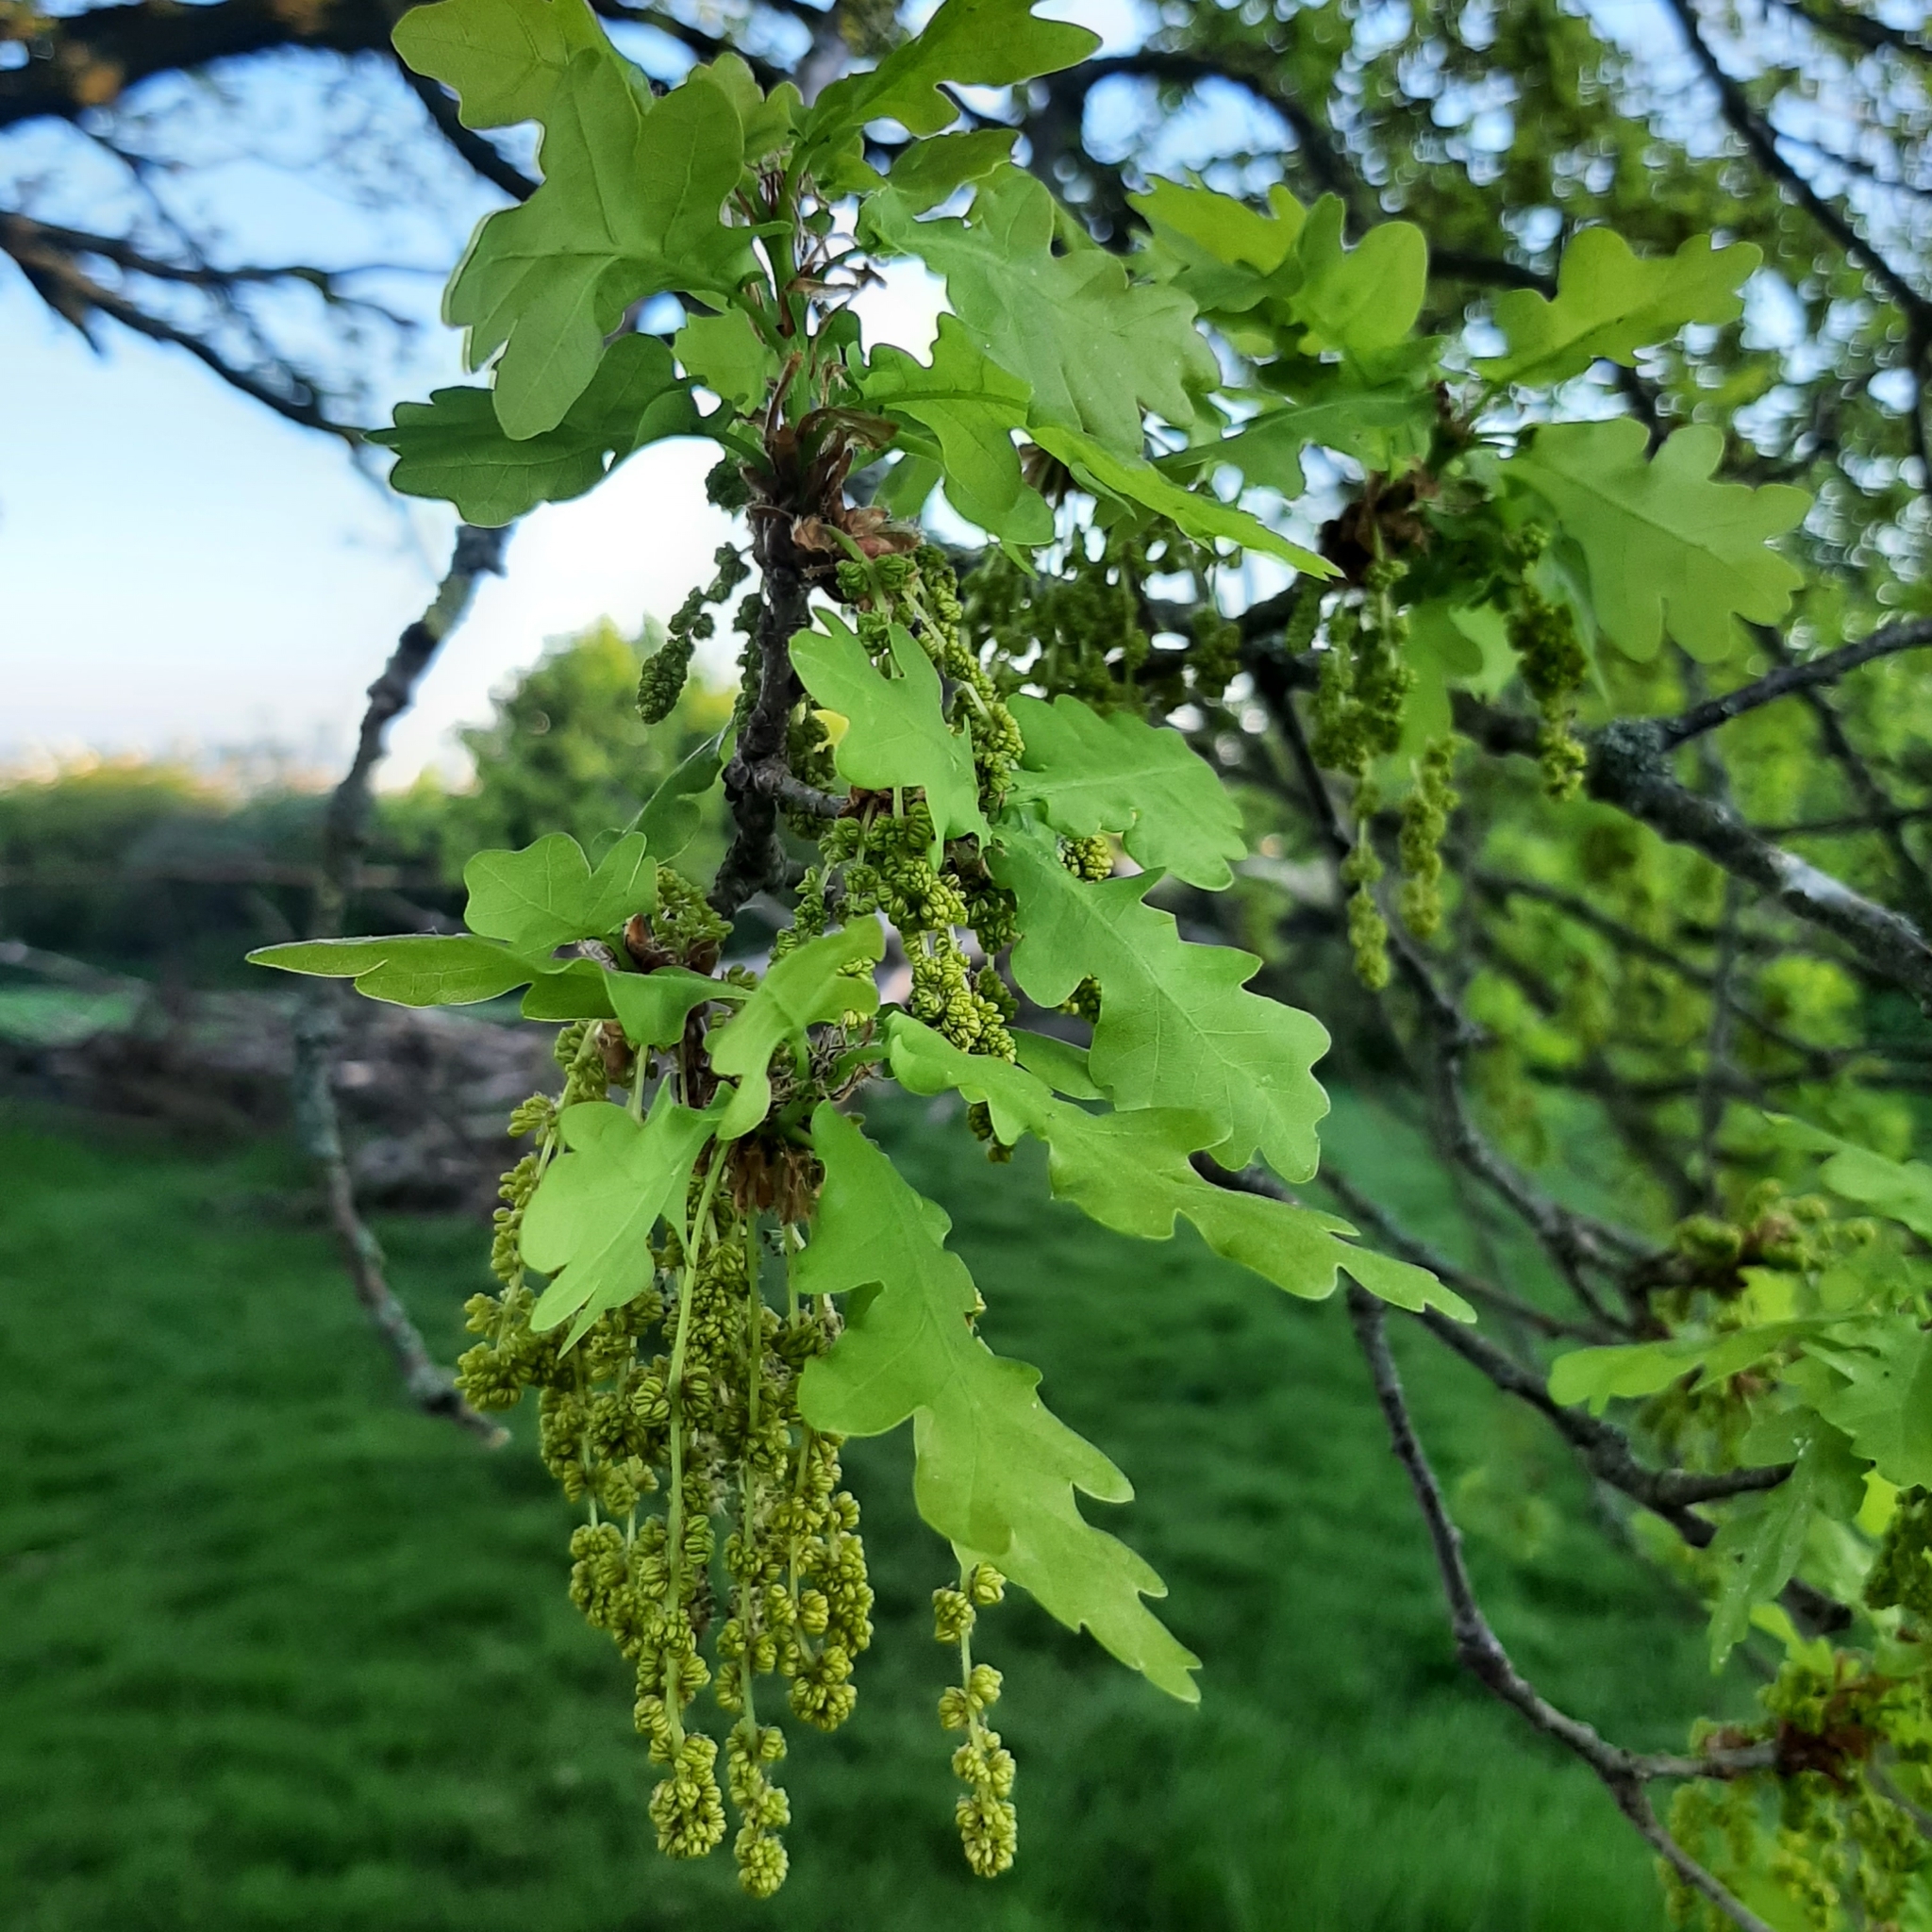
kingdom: Plantae
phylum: Tracheophyta
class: Magnoliopsida
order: Fagales
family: Fagaceae
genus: Quercus
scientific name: Quercus robur
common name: Pedunculate oak
